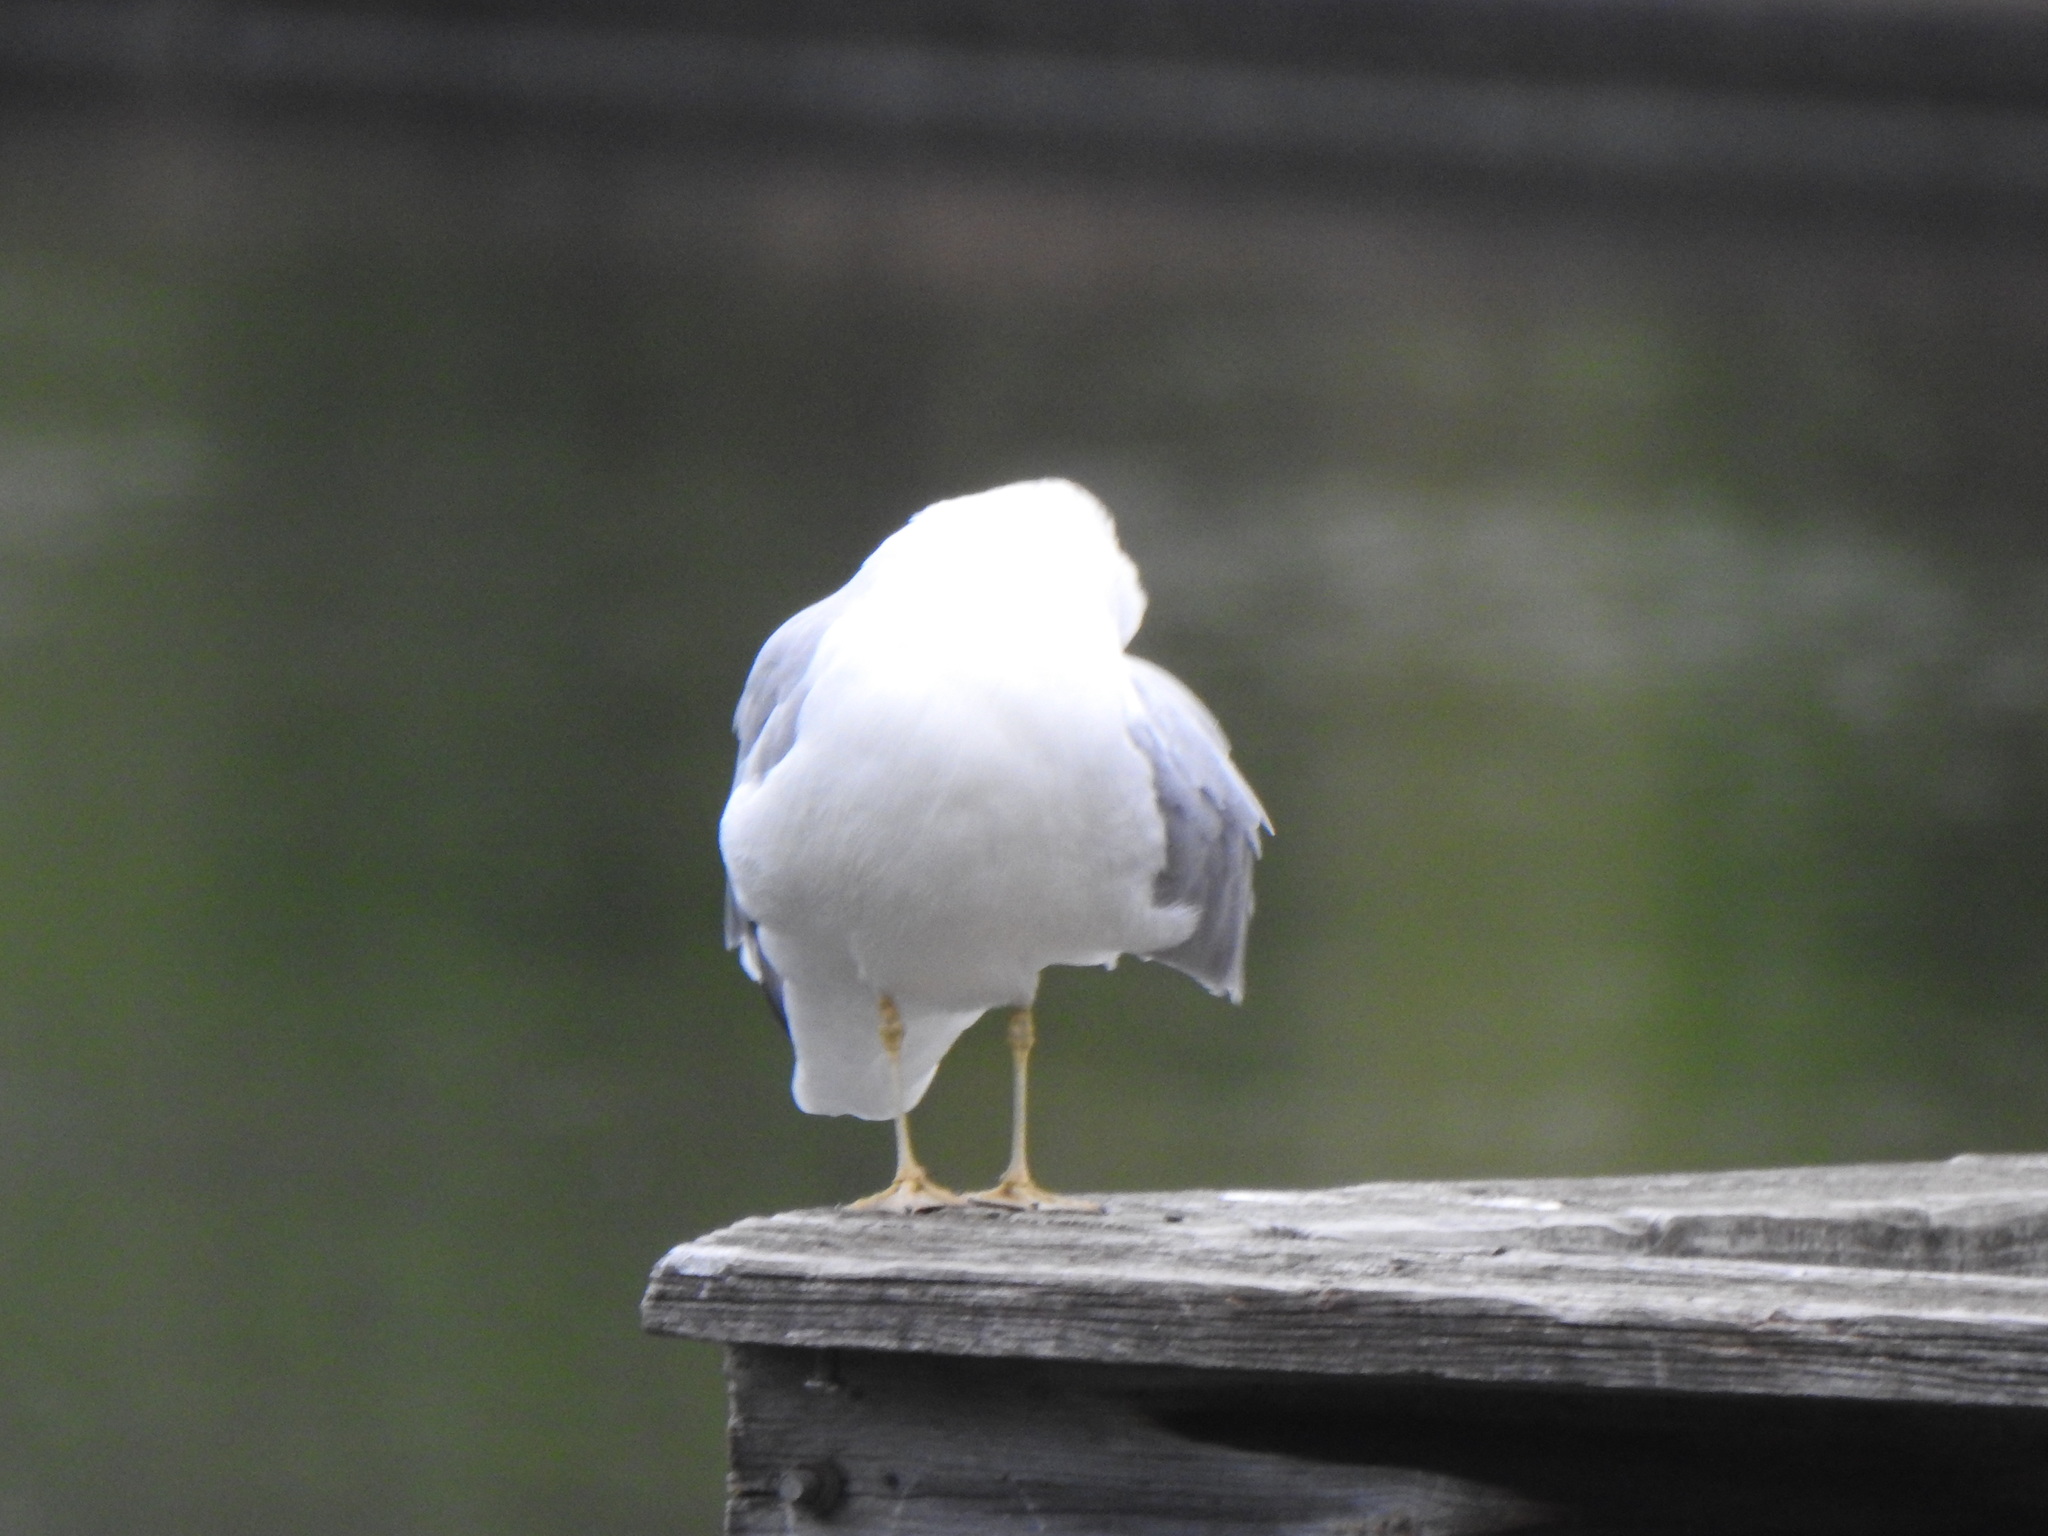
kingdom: Animalia
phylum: Chordata
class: Aves
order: Charadriiformes
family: Laridae
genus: Larus
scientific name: Larus delawarensis
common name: Ring-billed gull
